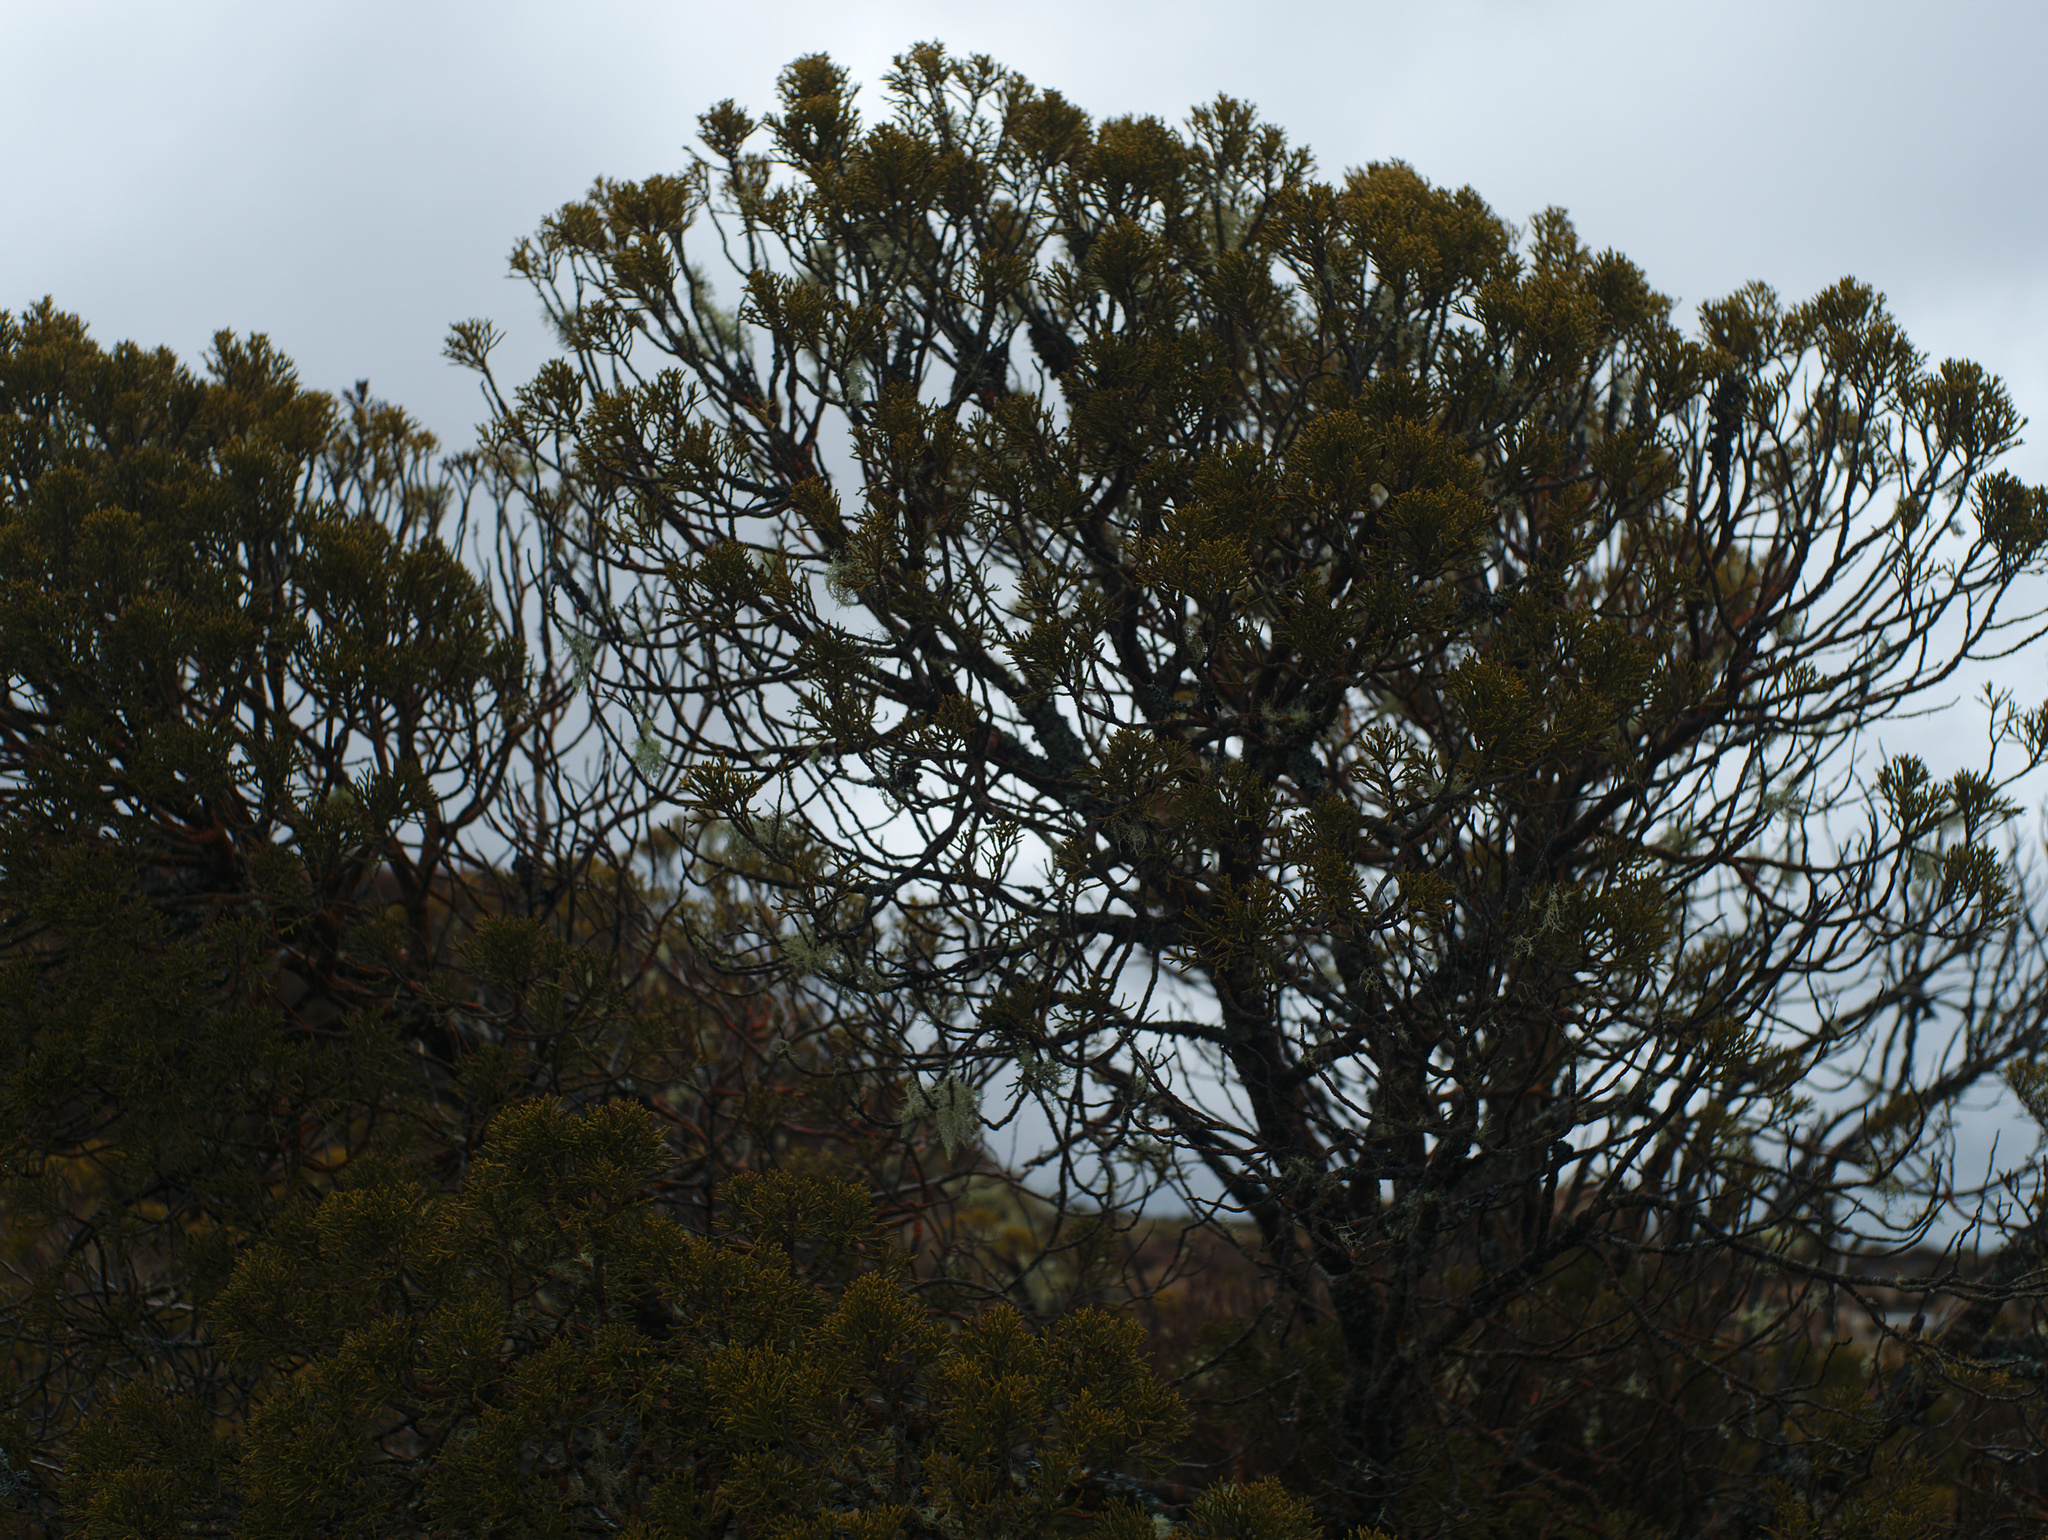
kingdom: Plantae
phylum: Tracheophyta
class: Pinopsida
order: Pinales
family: Podocarpaceae
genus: Halocarpus
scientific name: Halocarpus bidwillii
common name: Bog pine
